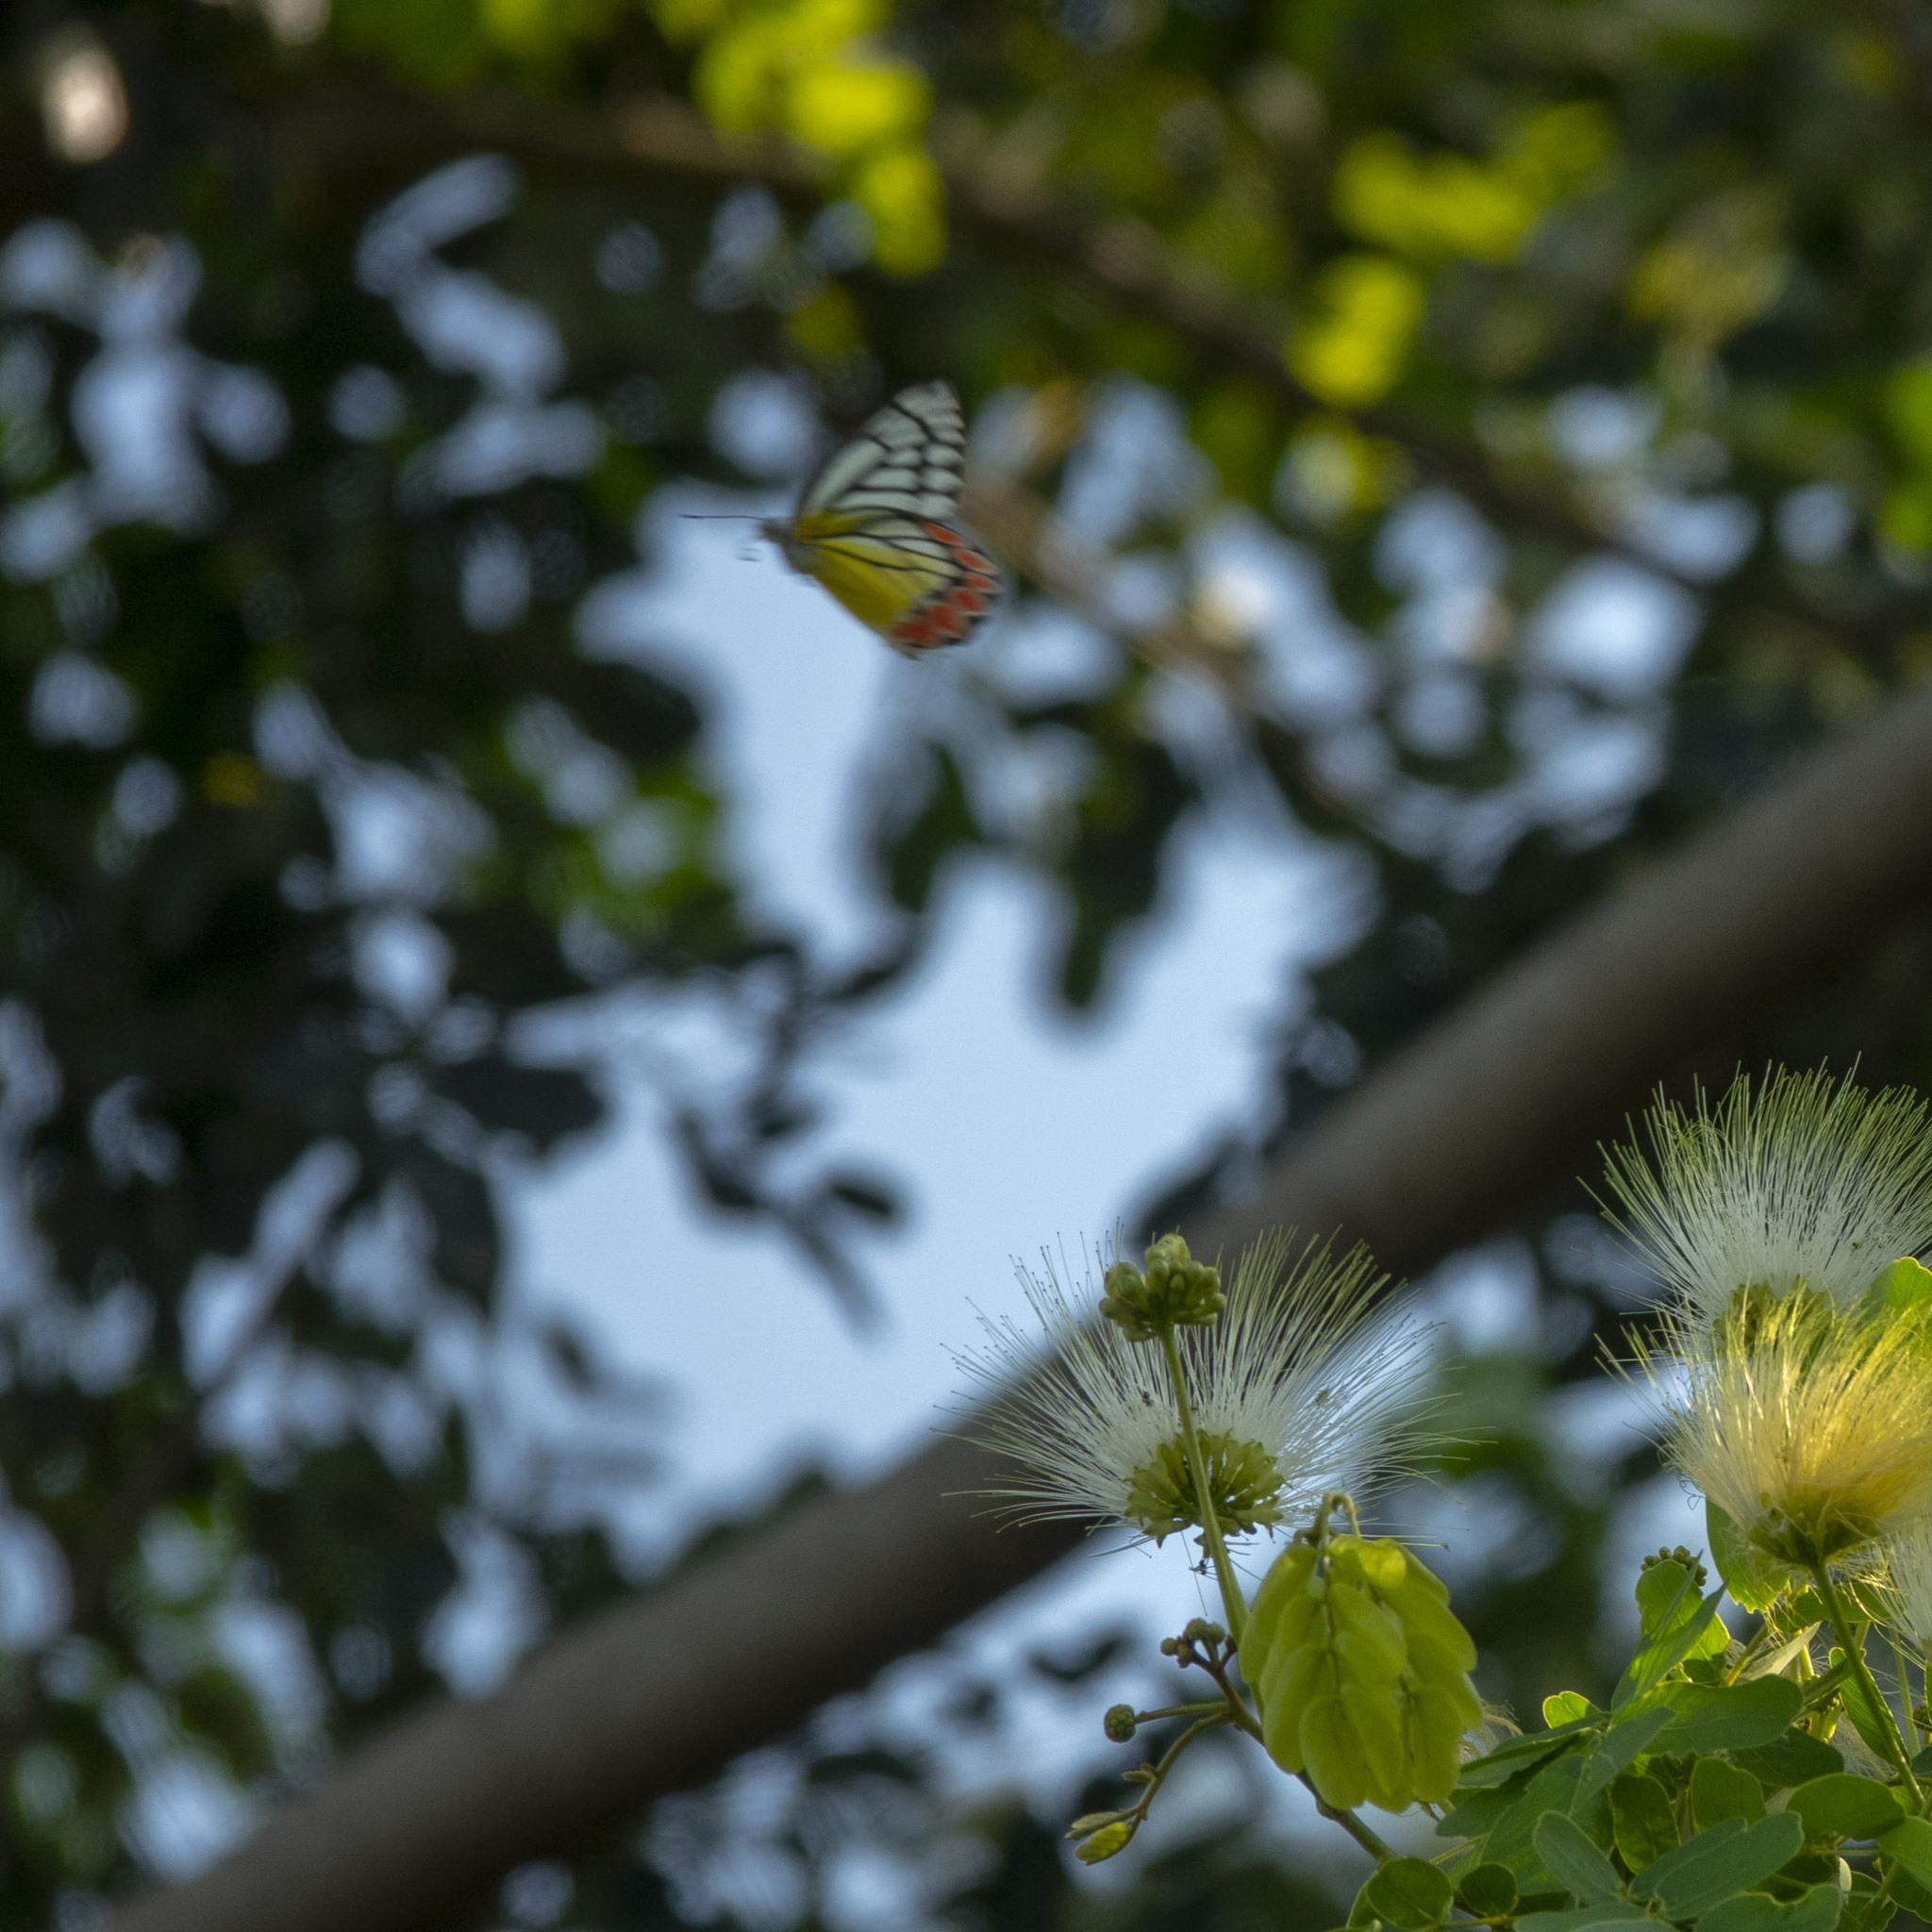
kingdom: Animalia
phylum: Arthropoda
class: Insecta
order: Lepidoptera
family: Pieridae
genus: Delias
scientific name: Delias eucharis
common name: Common jezebel
